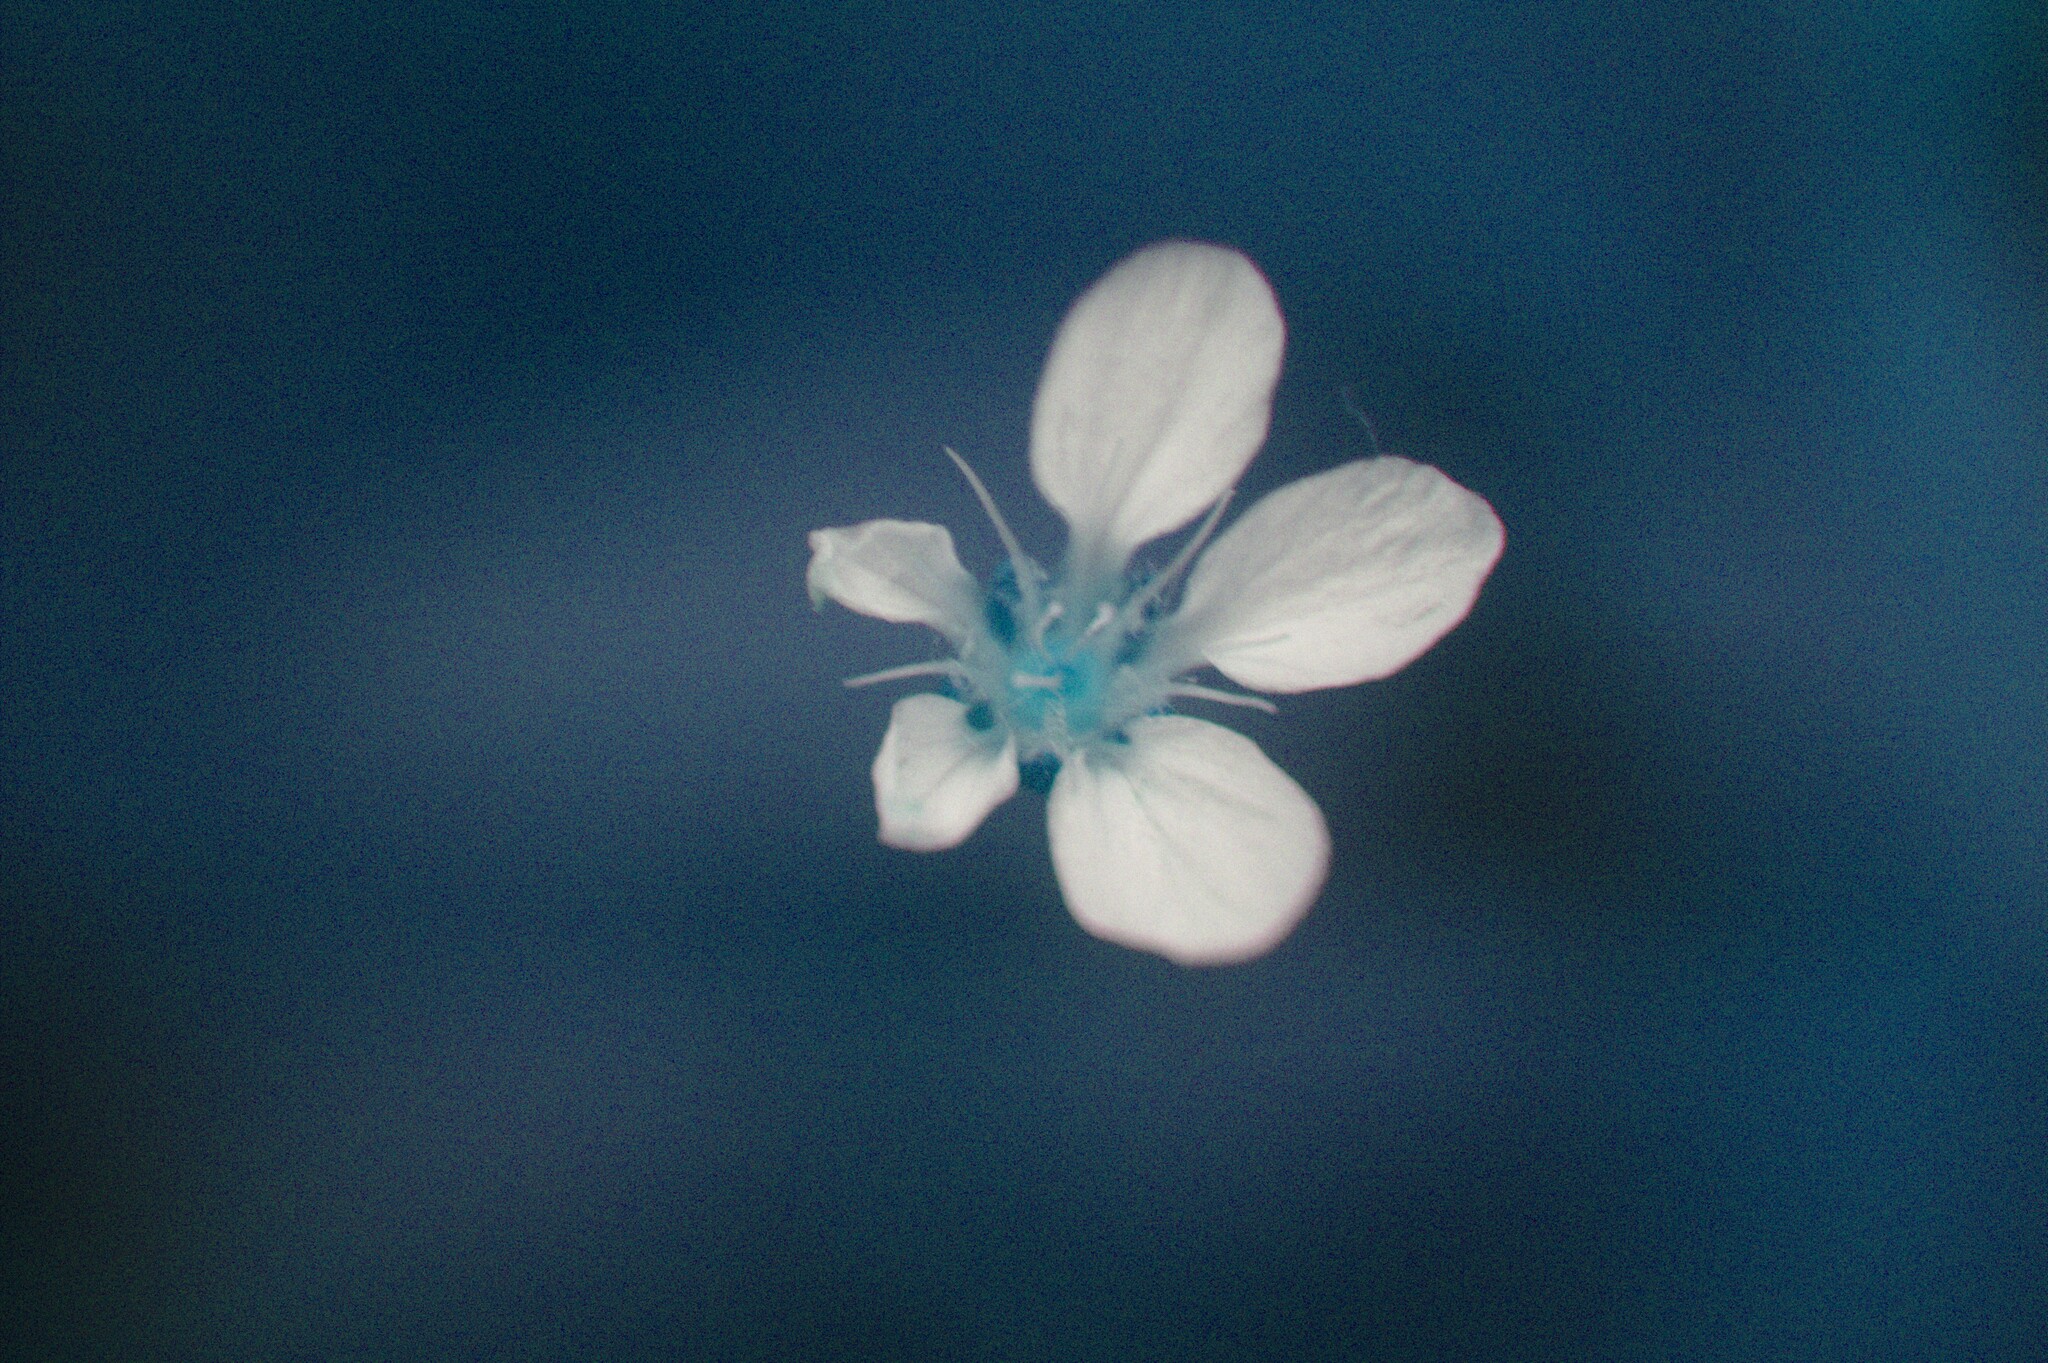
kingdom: Plantae
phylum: Tracheophyta
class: Magnoliopsida
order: Caryophyllales
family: Caryophyllaceae
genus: Moehringia
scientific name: Moehringia lateriflora
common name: Blunt-leaved sandwort
